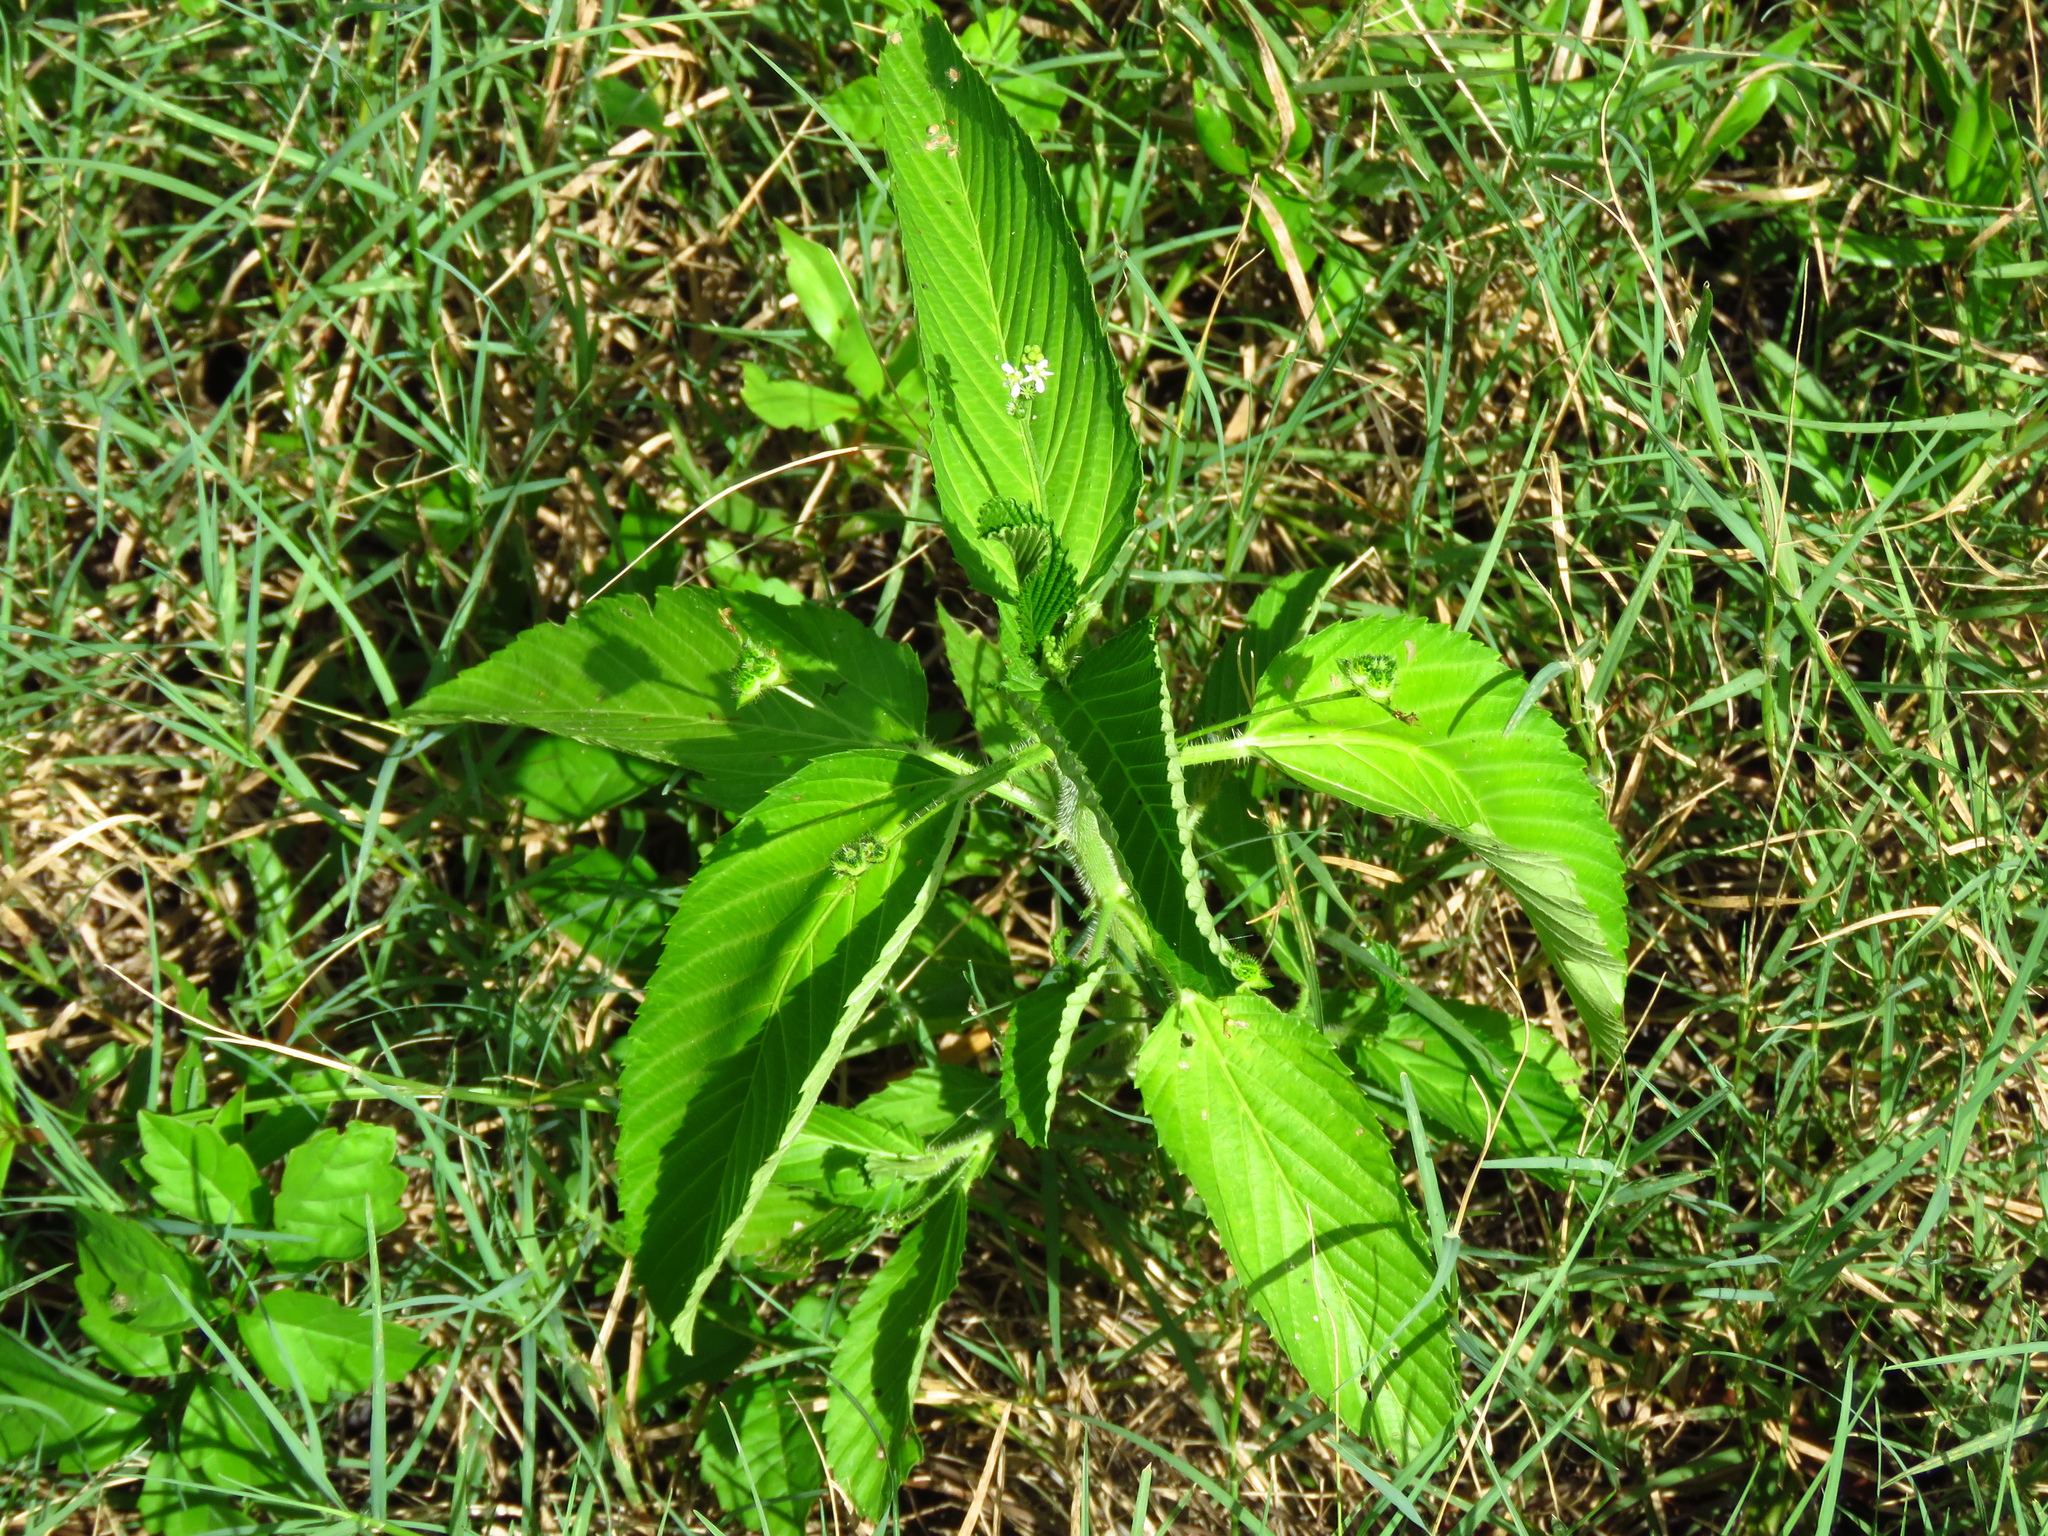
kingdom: Plantae
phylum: Tracheophyta
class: Magnoliopsida
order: Malpighiales
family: Euphorbiaceae
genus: Caperonia
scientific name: Caperonia palustris
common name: Sacatrapo
